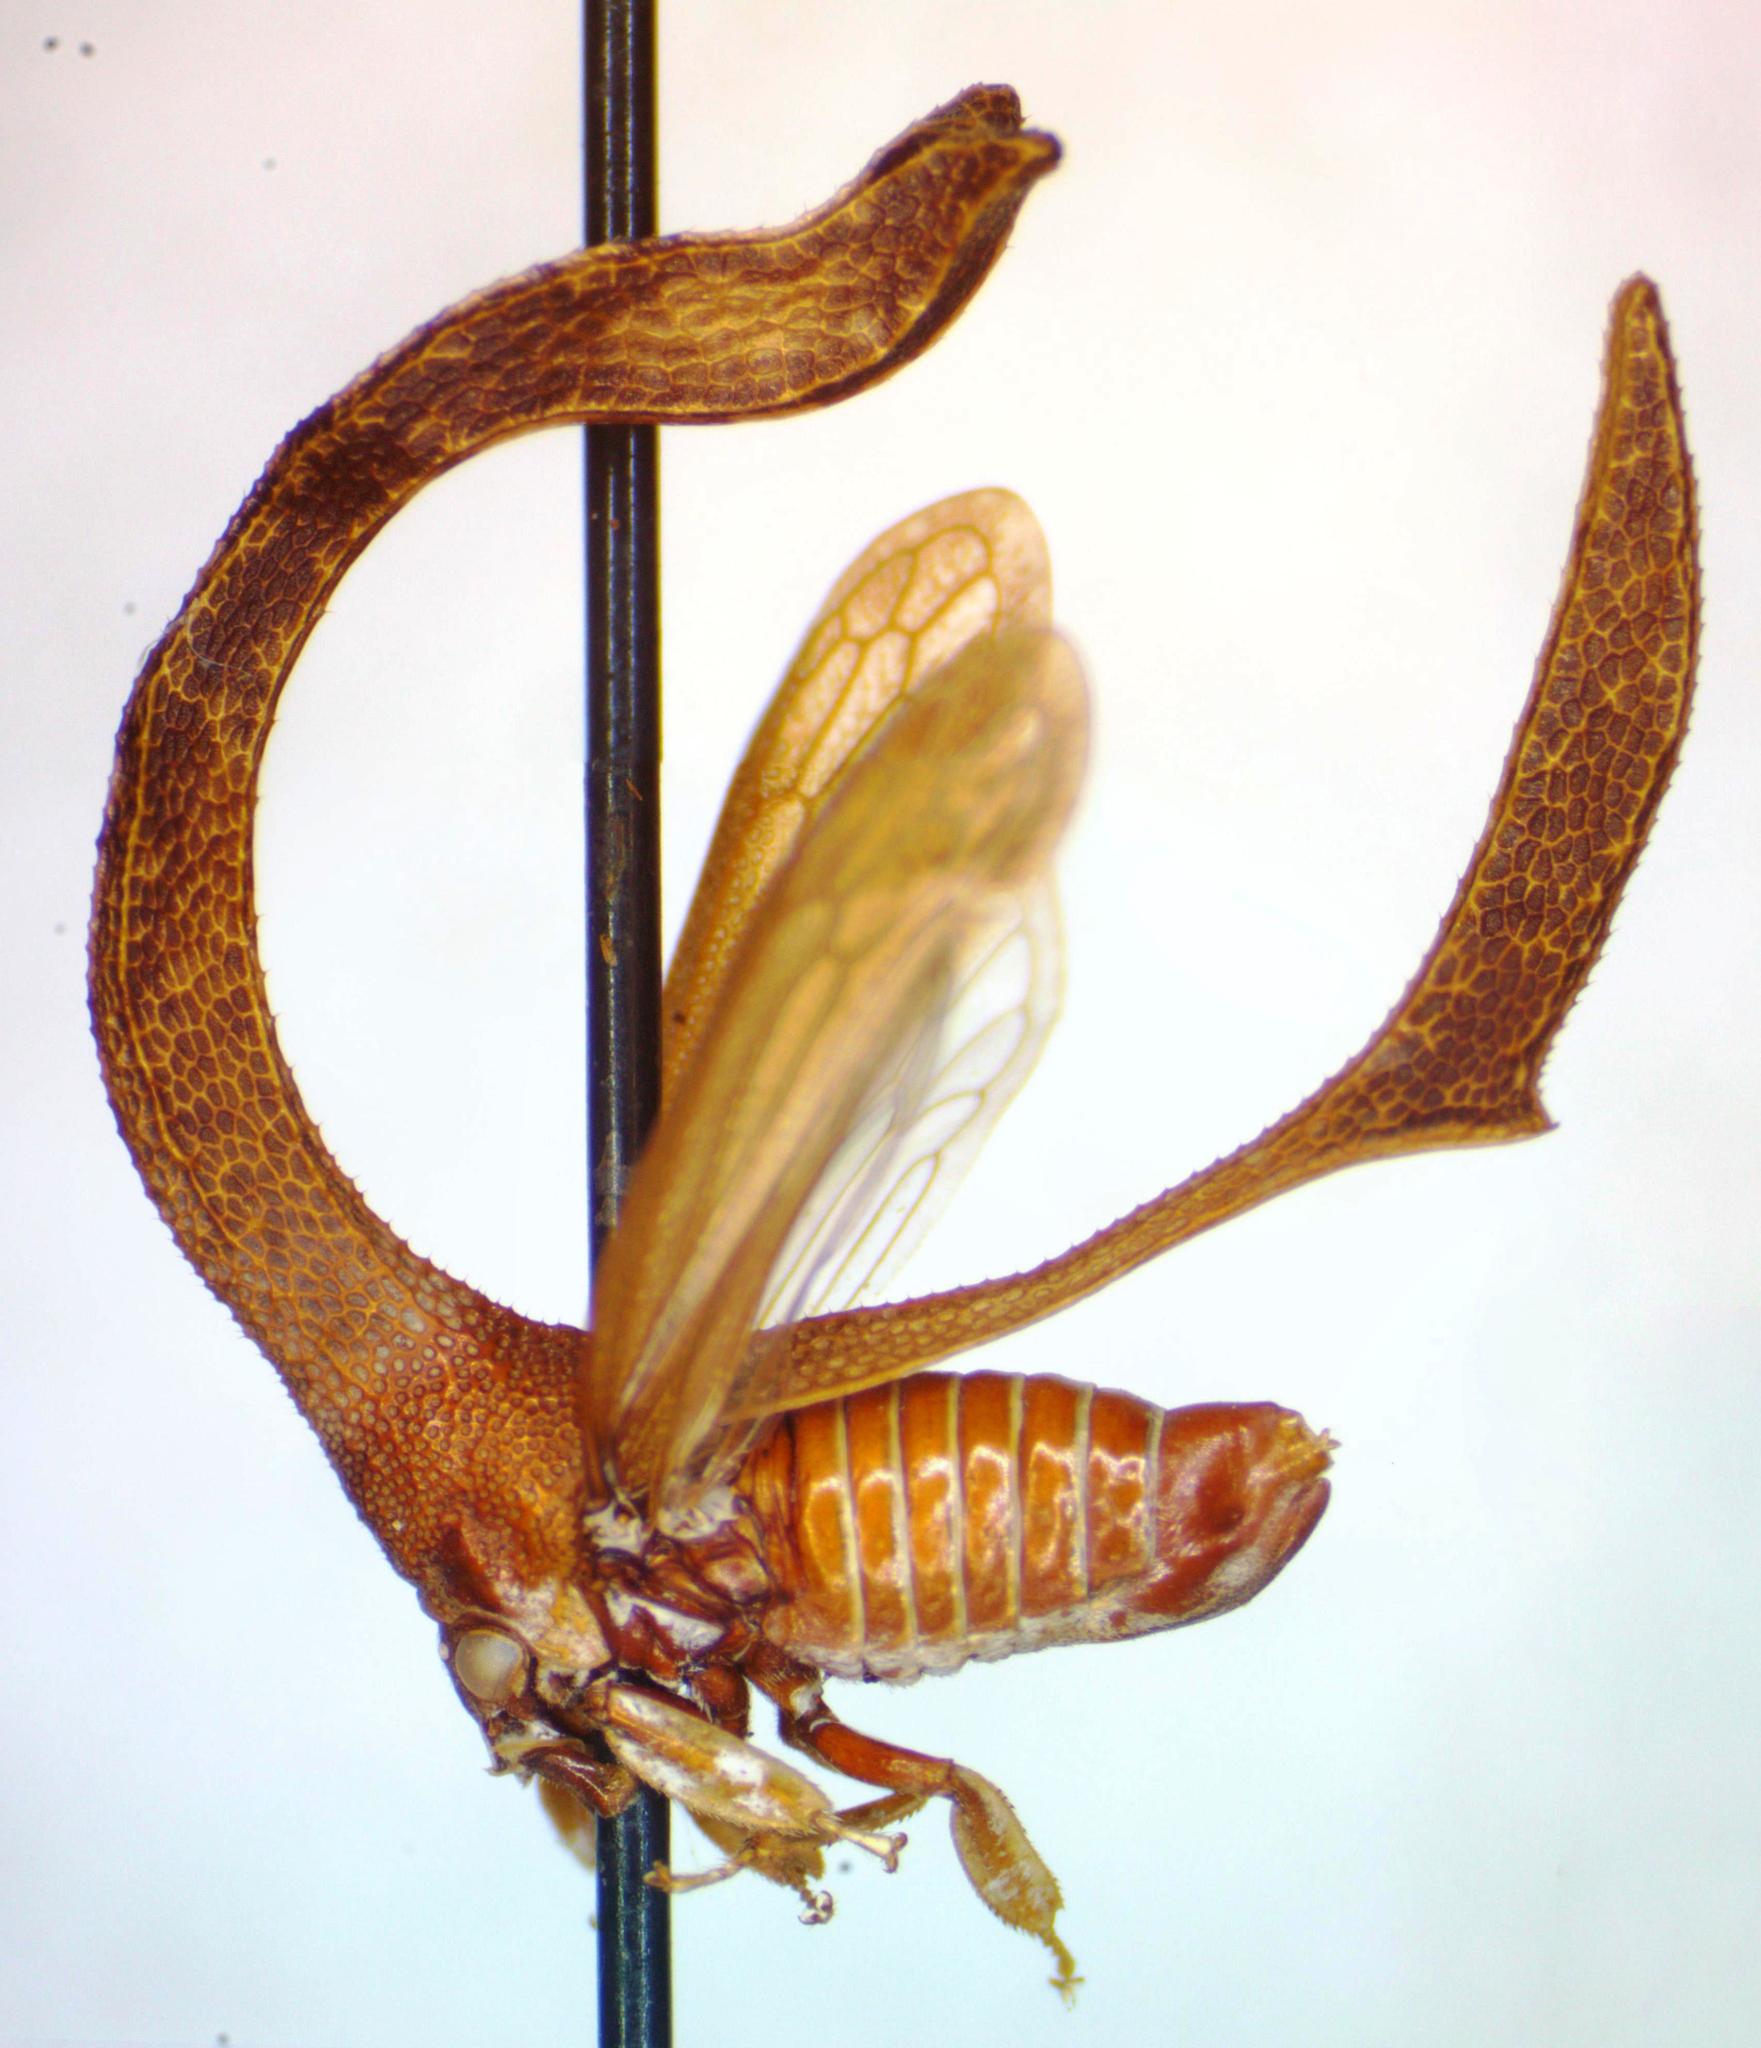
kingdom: Animalia
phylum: Arthropoda
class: Insecta
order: Hemiptera
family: Membracidae
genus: Cladonota
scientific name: Cladonota apicalis
